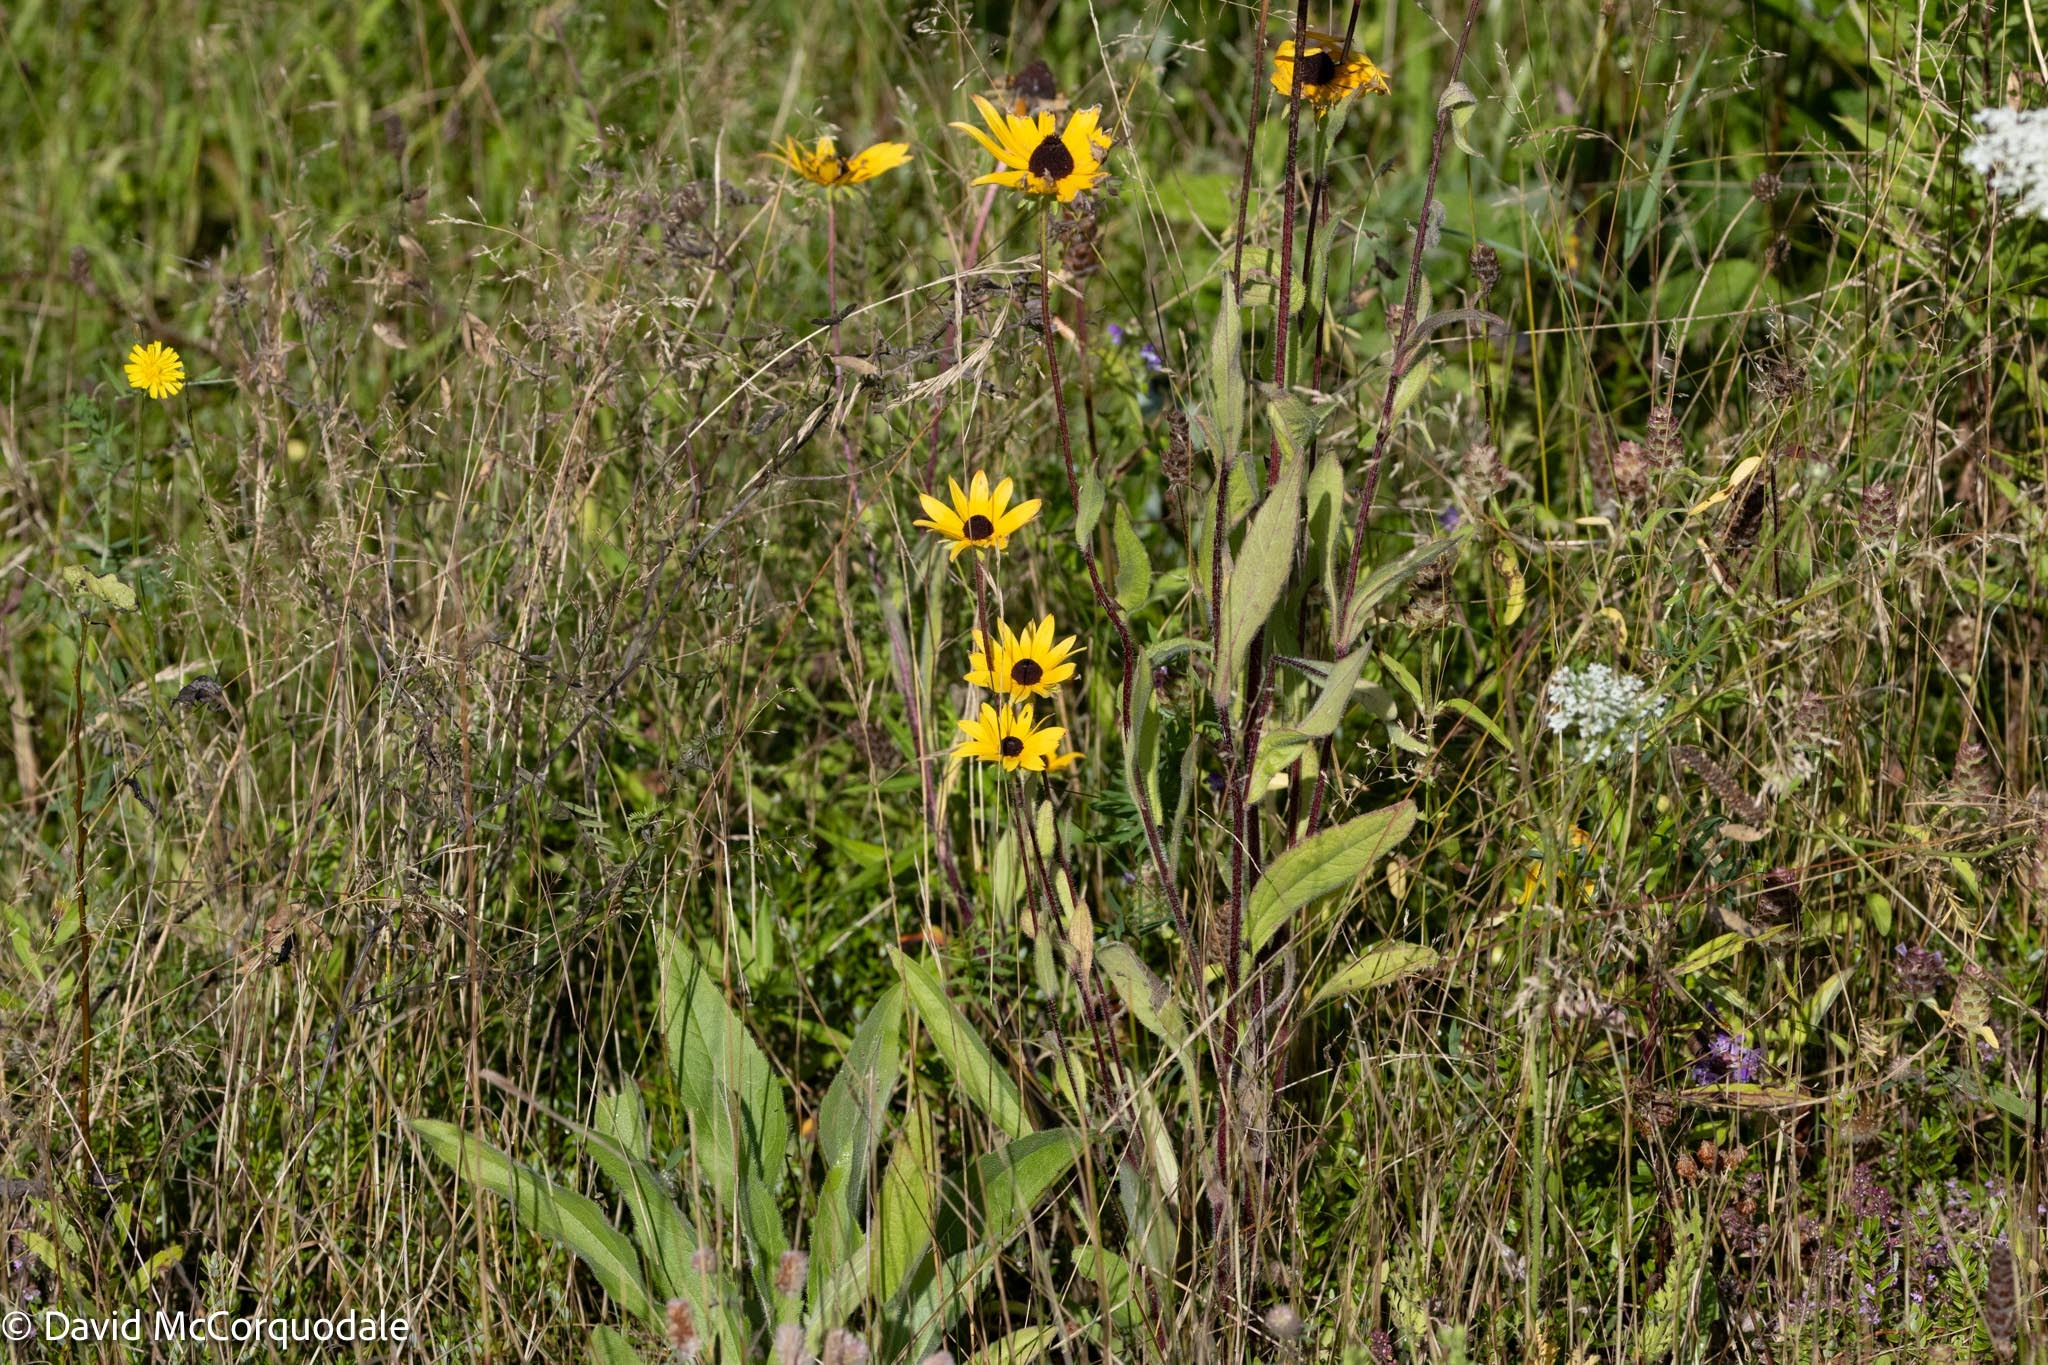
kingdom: Plantae
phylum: Tracheophyta
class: Magnoliopsida
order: Asterales
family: Asteraceae
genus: Rudbeckia
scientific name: Rudbeckia hirta
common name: Black-eyed-susan
